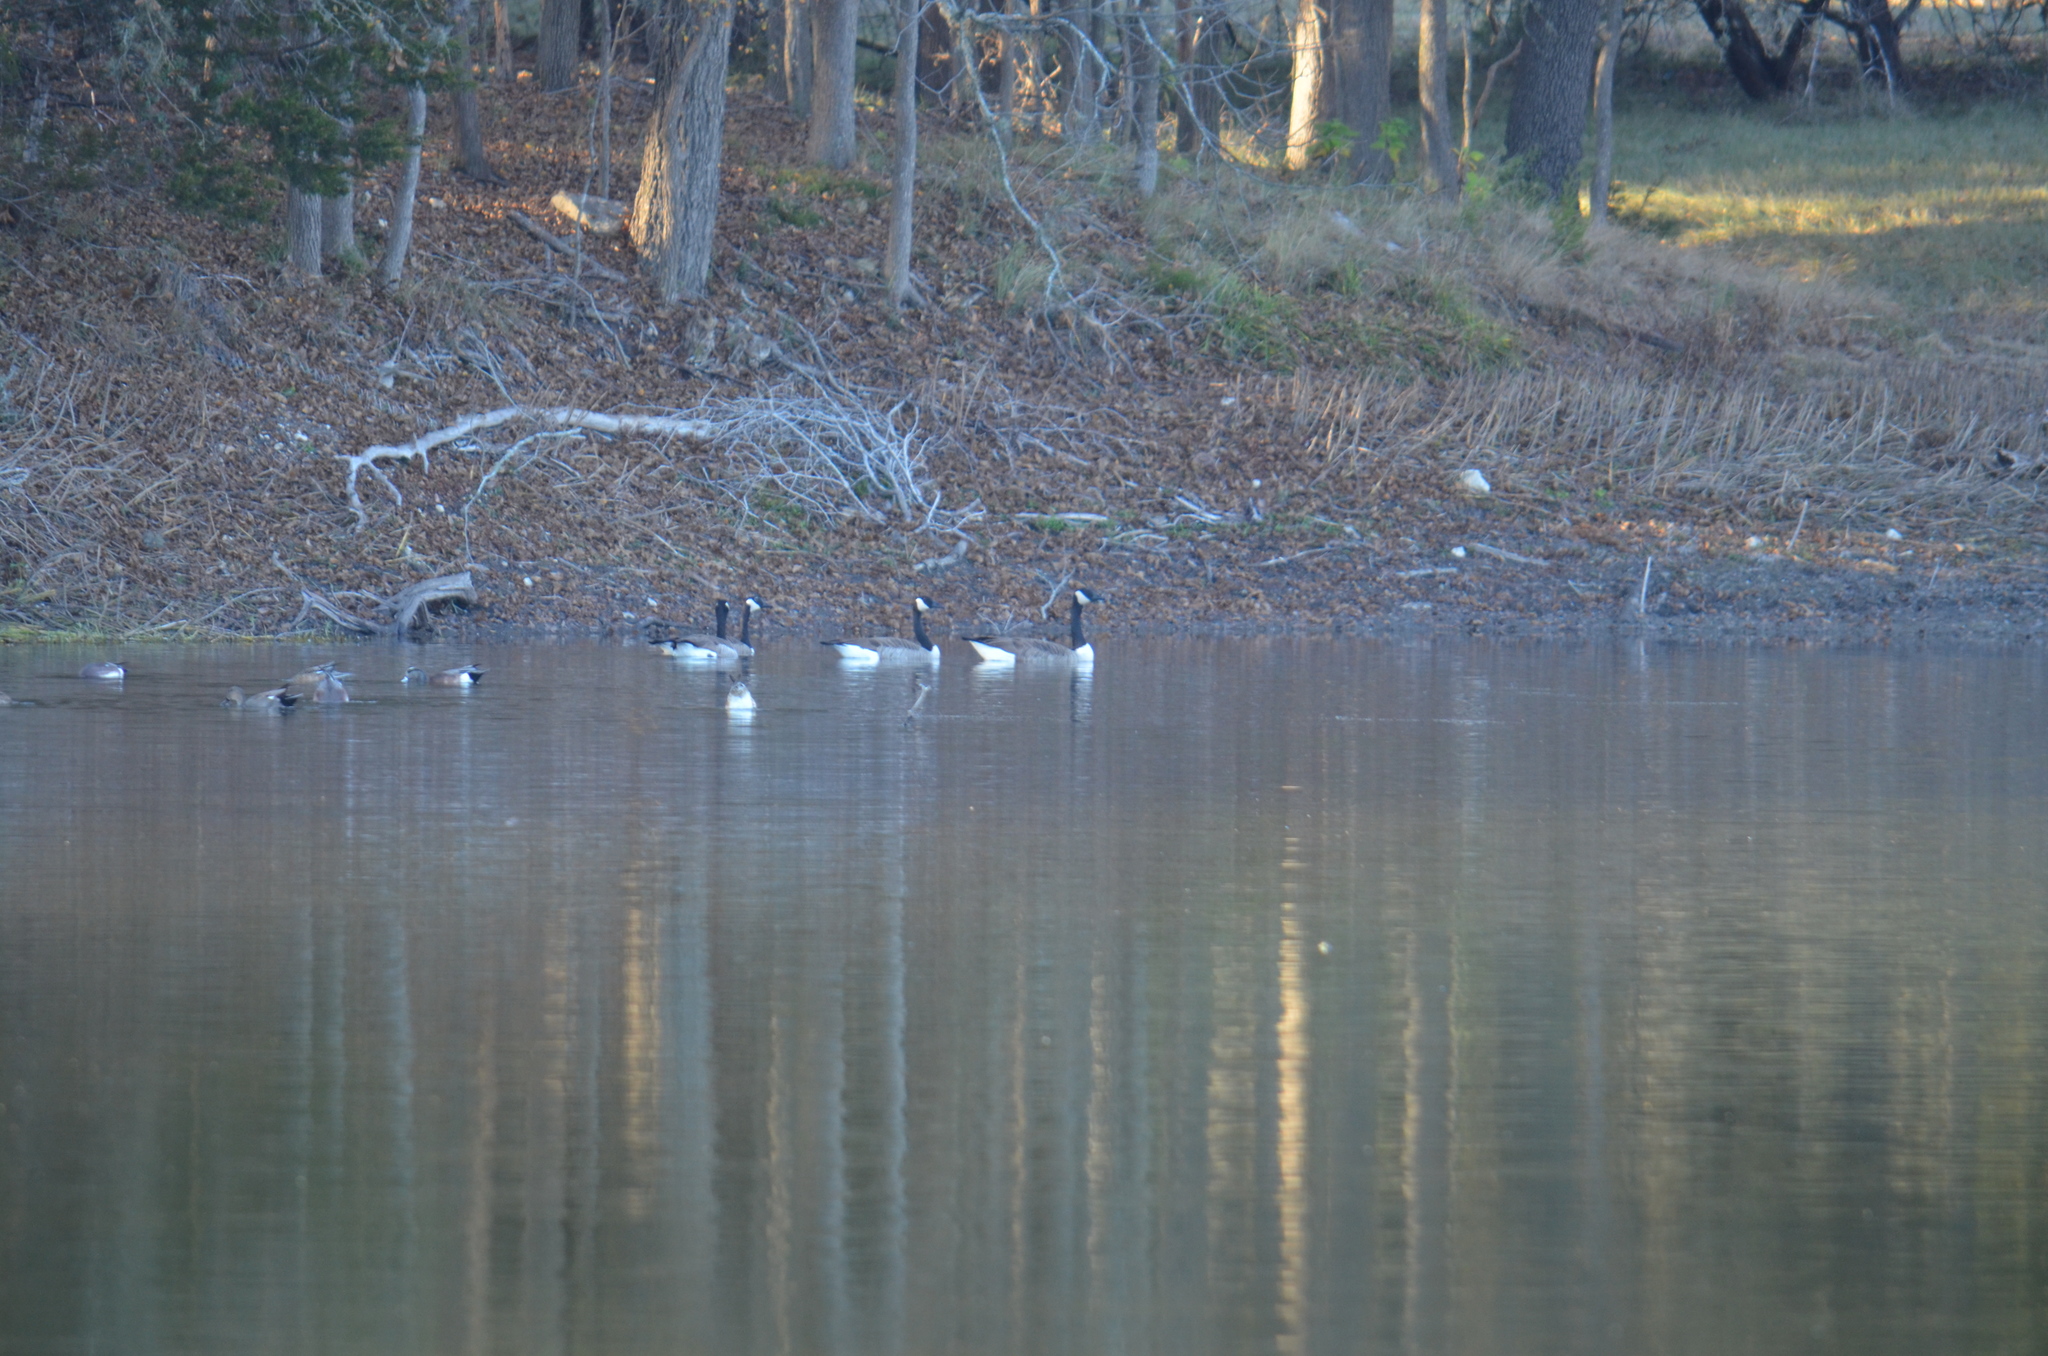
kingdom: Animalia
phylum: Chordata
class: Aves
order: Anseriformes
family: Anatidae
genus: Branta
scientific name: Branta canadensis
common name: Canada goose
